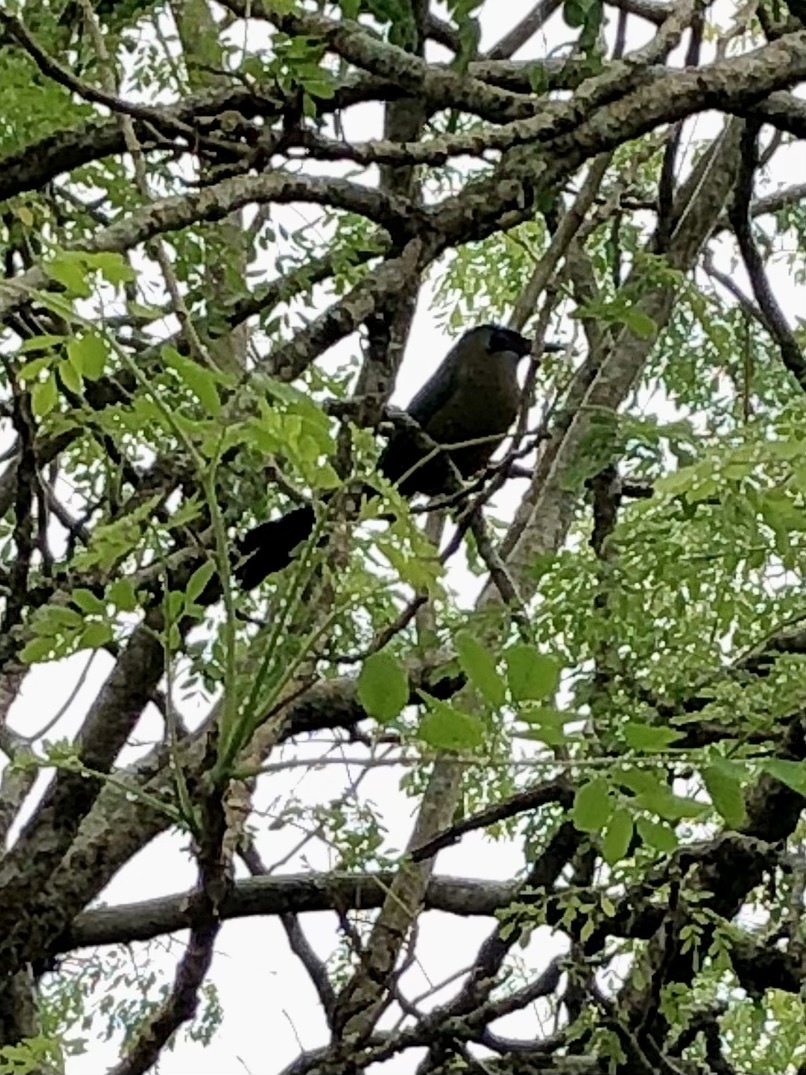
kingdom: Animalia
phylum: Chordata
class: Aves
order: Coraciiformes
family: Momotidae
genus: Momotus
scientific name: Momotus subrufescens
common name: Whooping motmot
